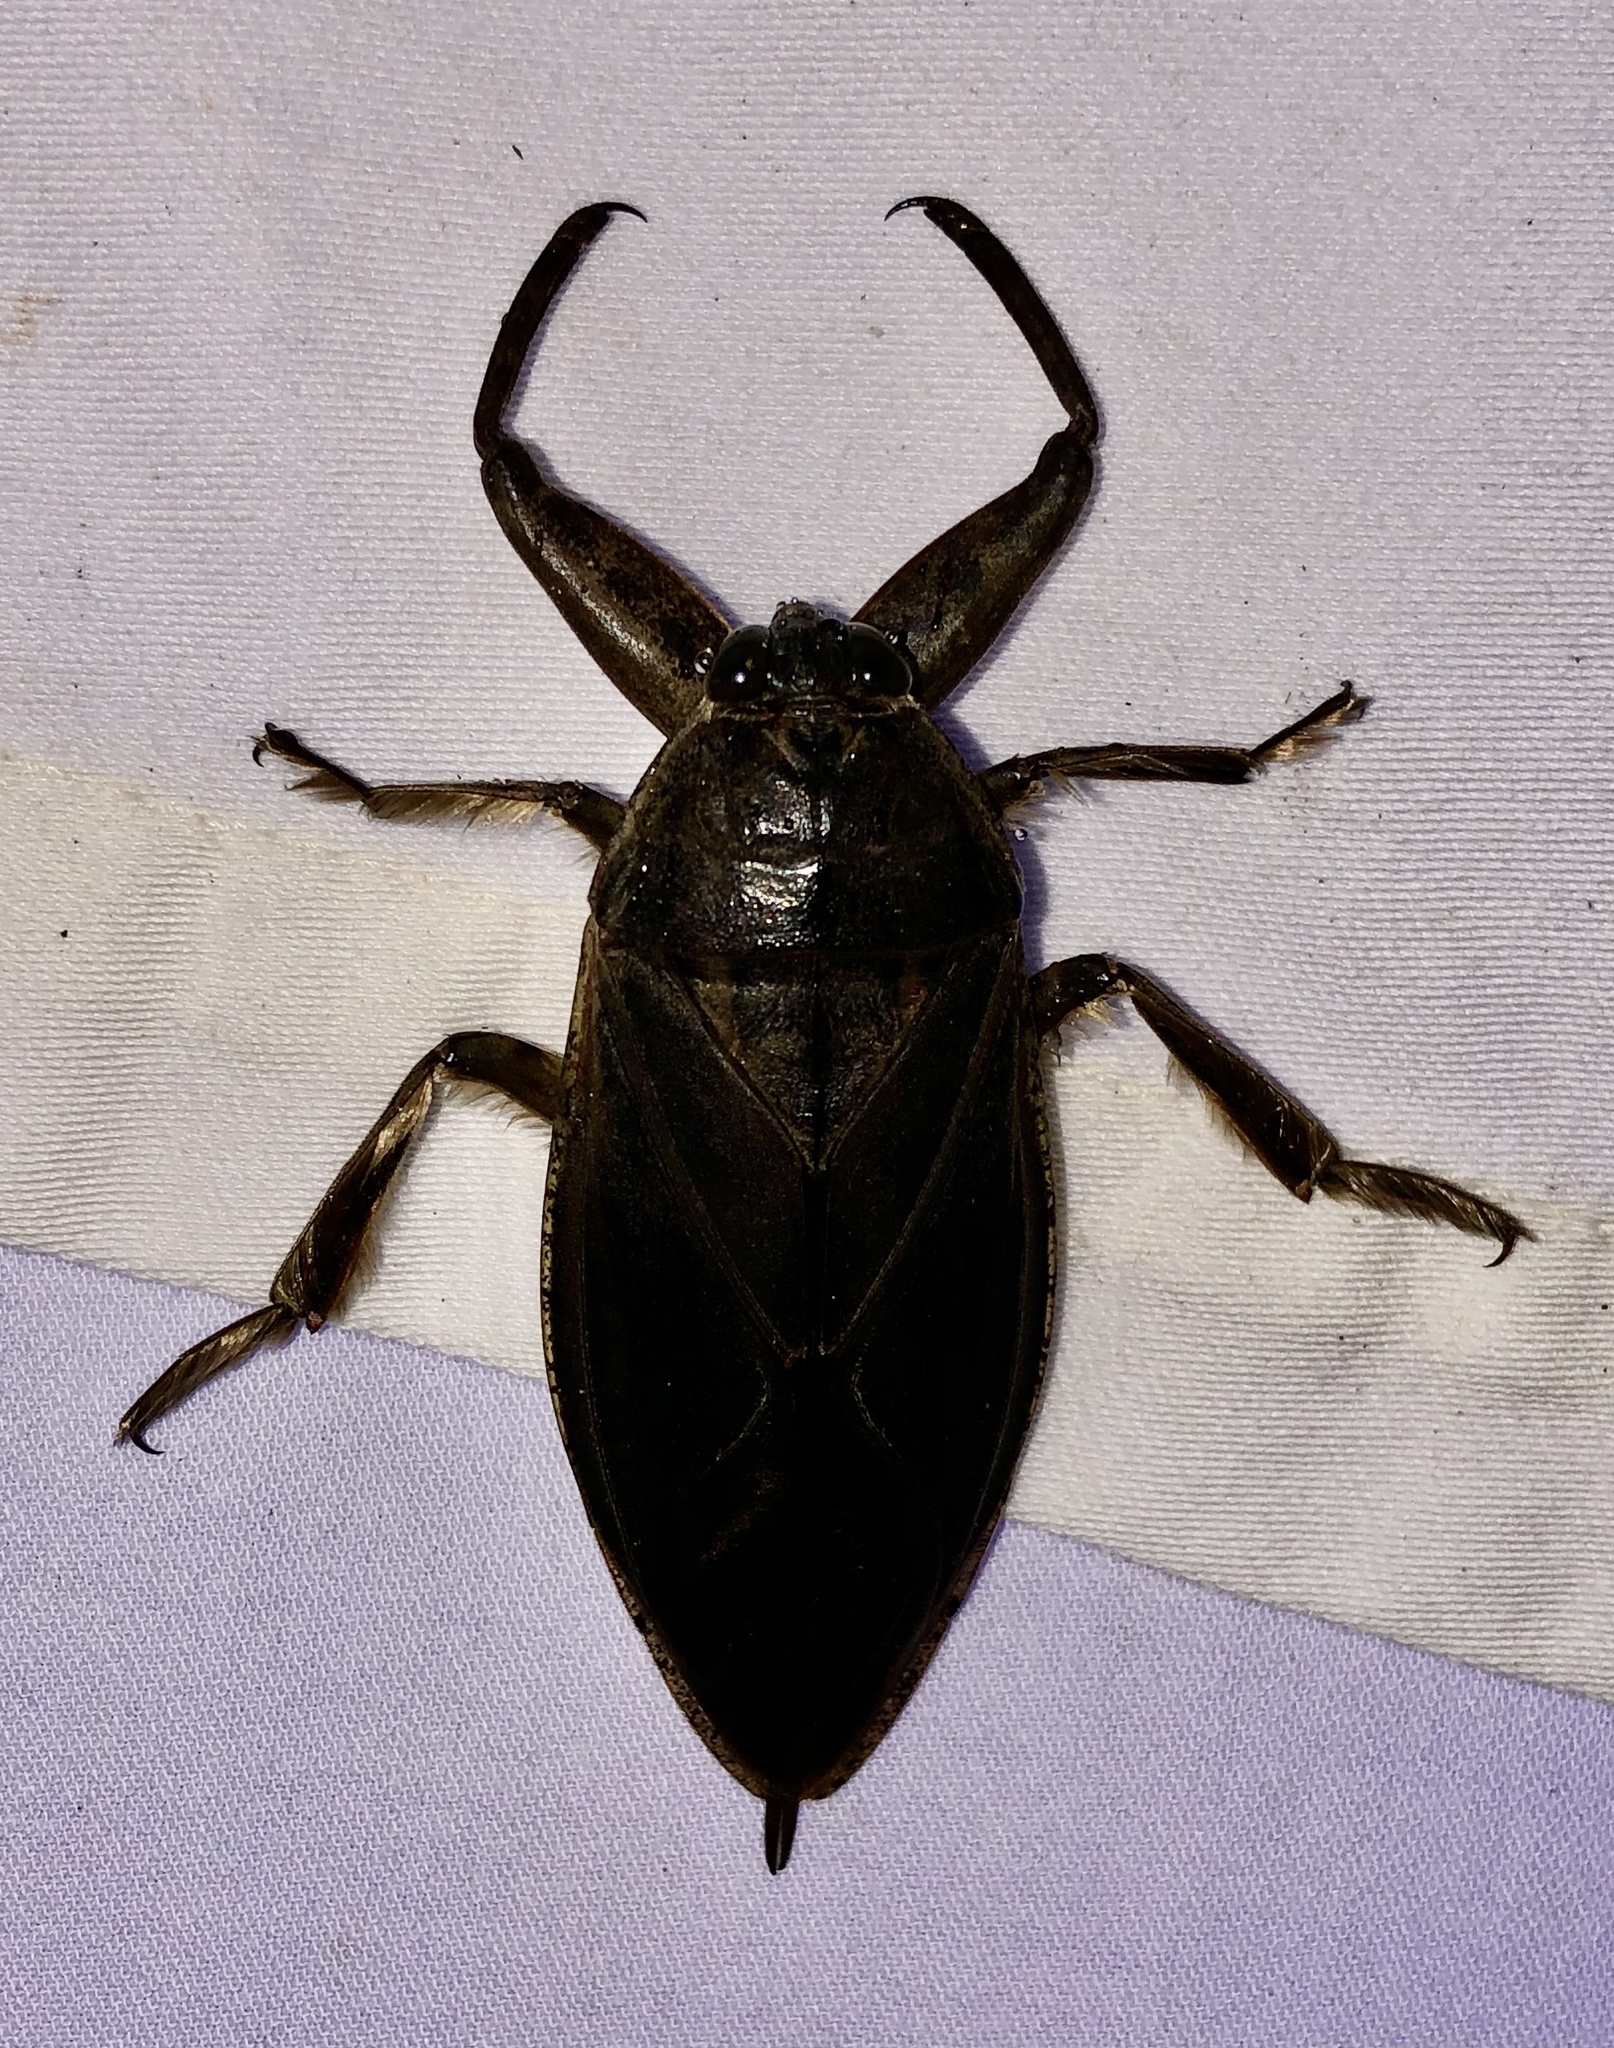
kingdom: Animalia
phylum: Arthropoda
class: Insecta
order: Hemiptera
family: Belostomatidae
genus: Lethocerus
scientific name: Lethocerus americanus
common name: Giant water bug
